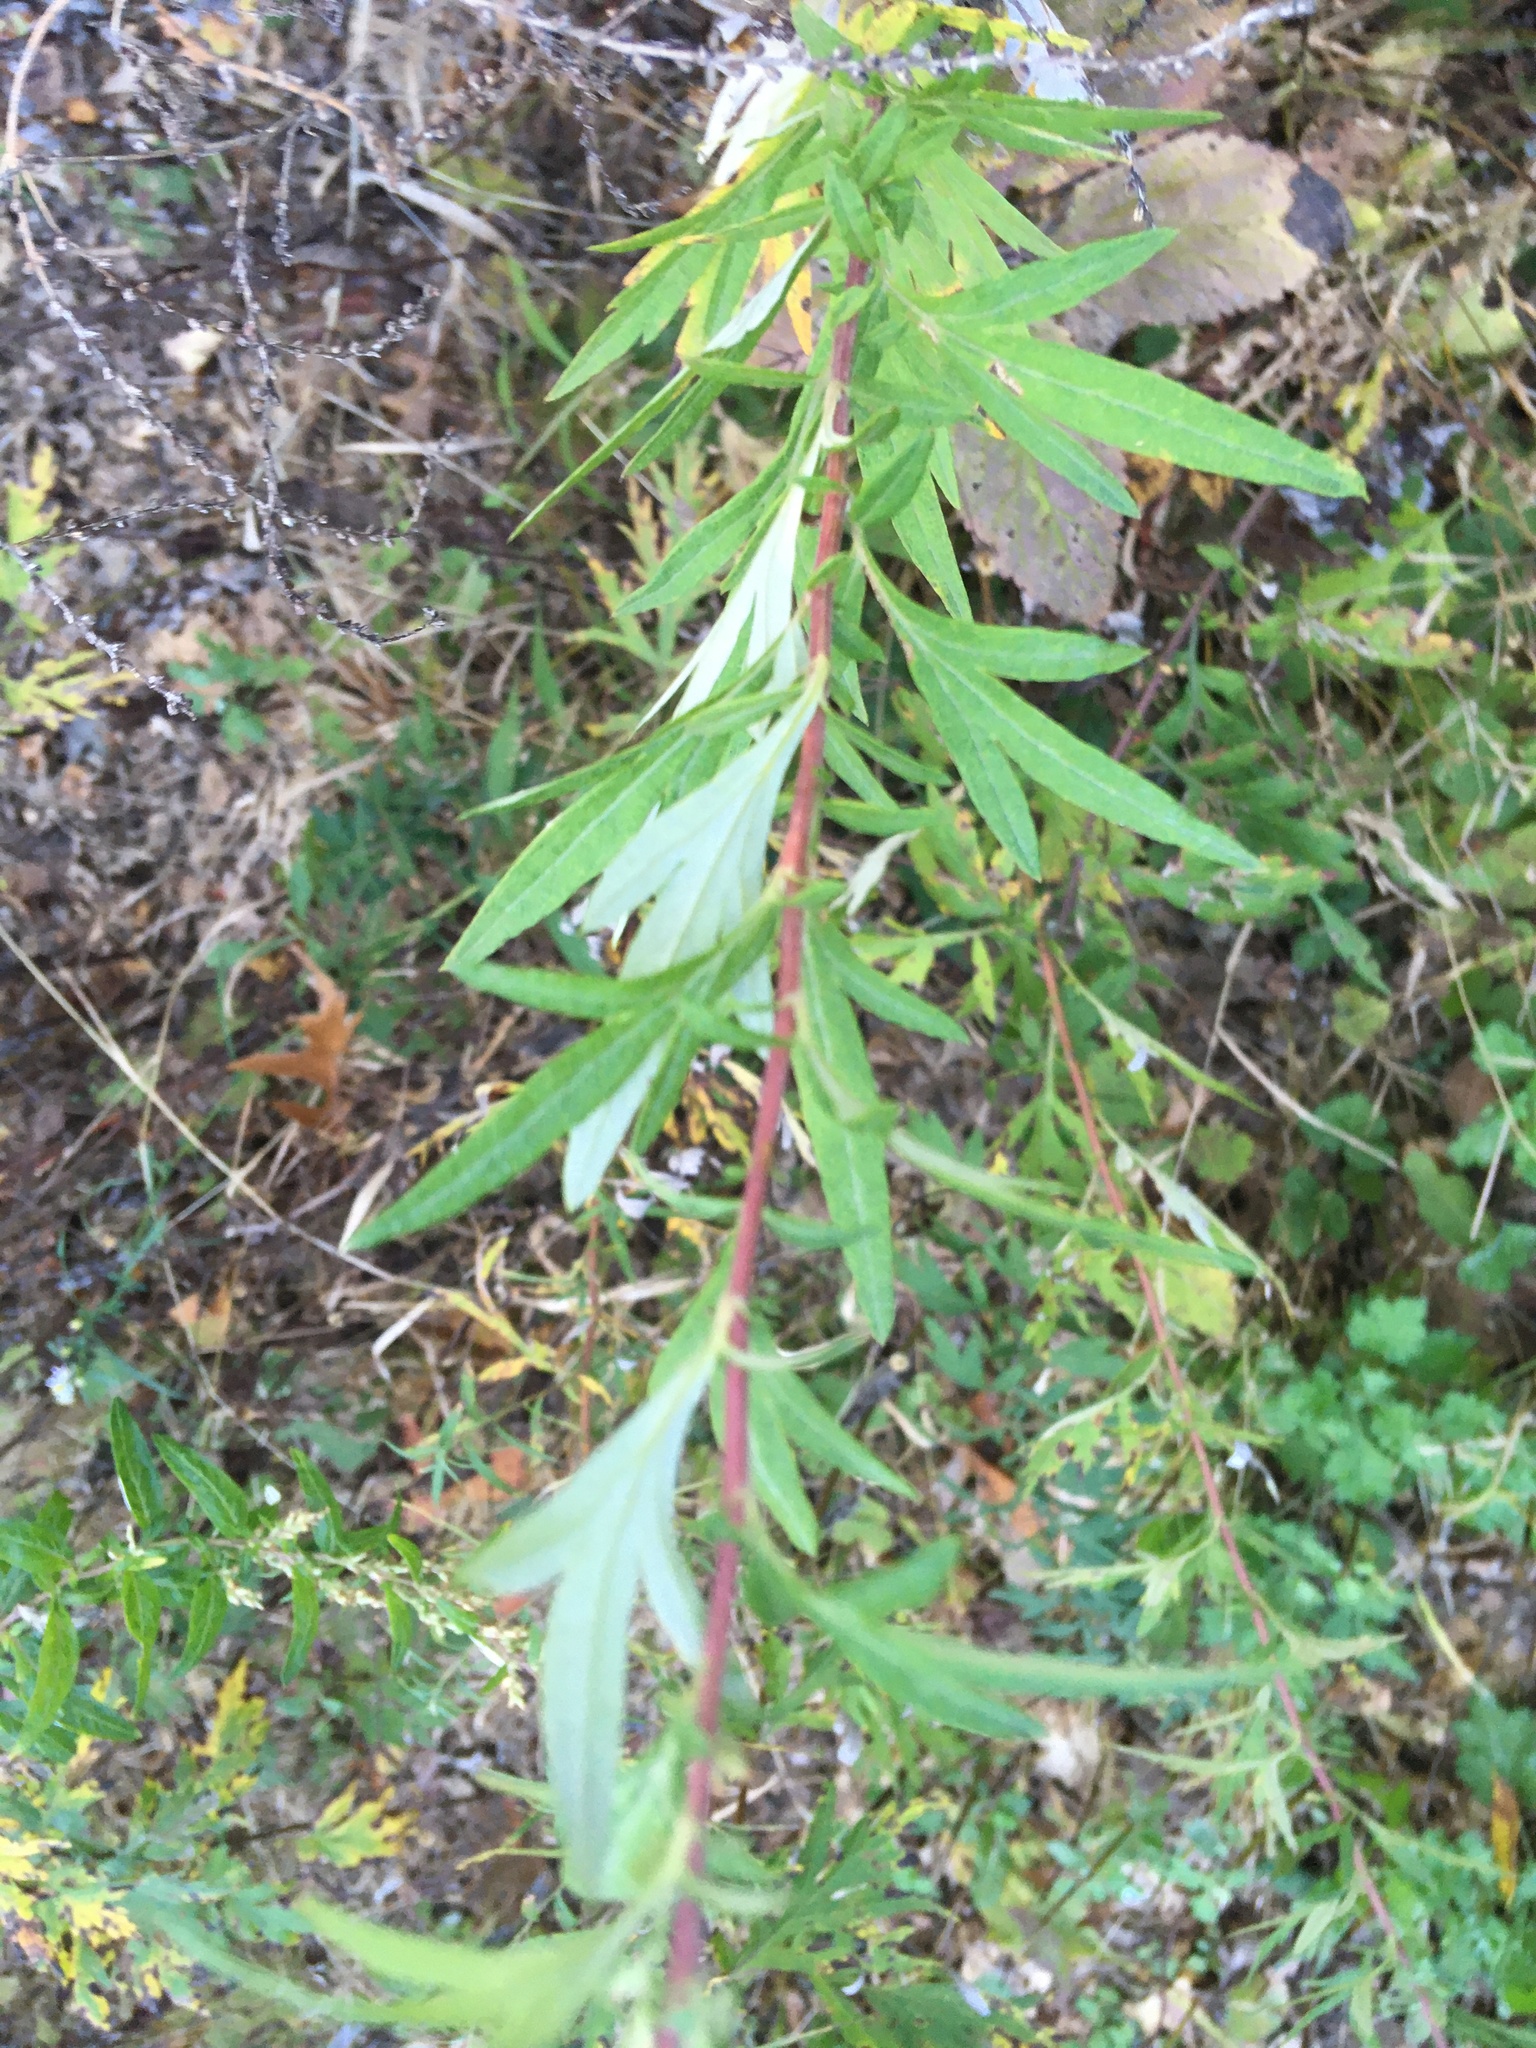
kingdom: Plantae
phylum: Tracheophyta
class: Magnoliopsida
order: Asterales
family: Asteraceae
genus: Artemisia
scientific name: Artemisia vulgaris
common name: Mugwort
